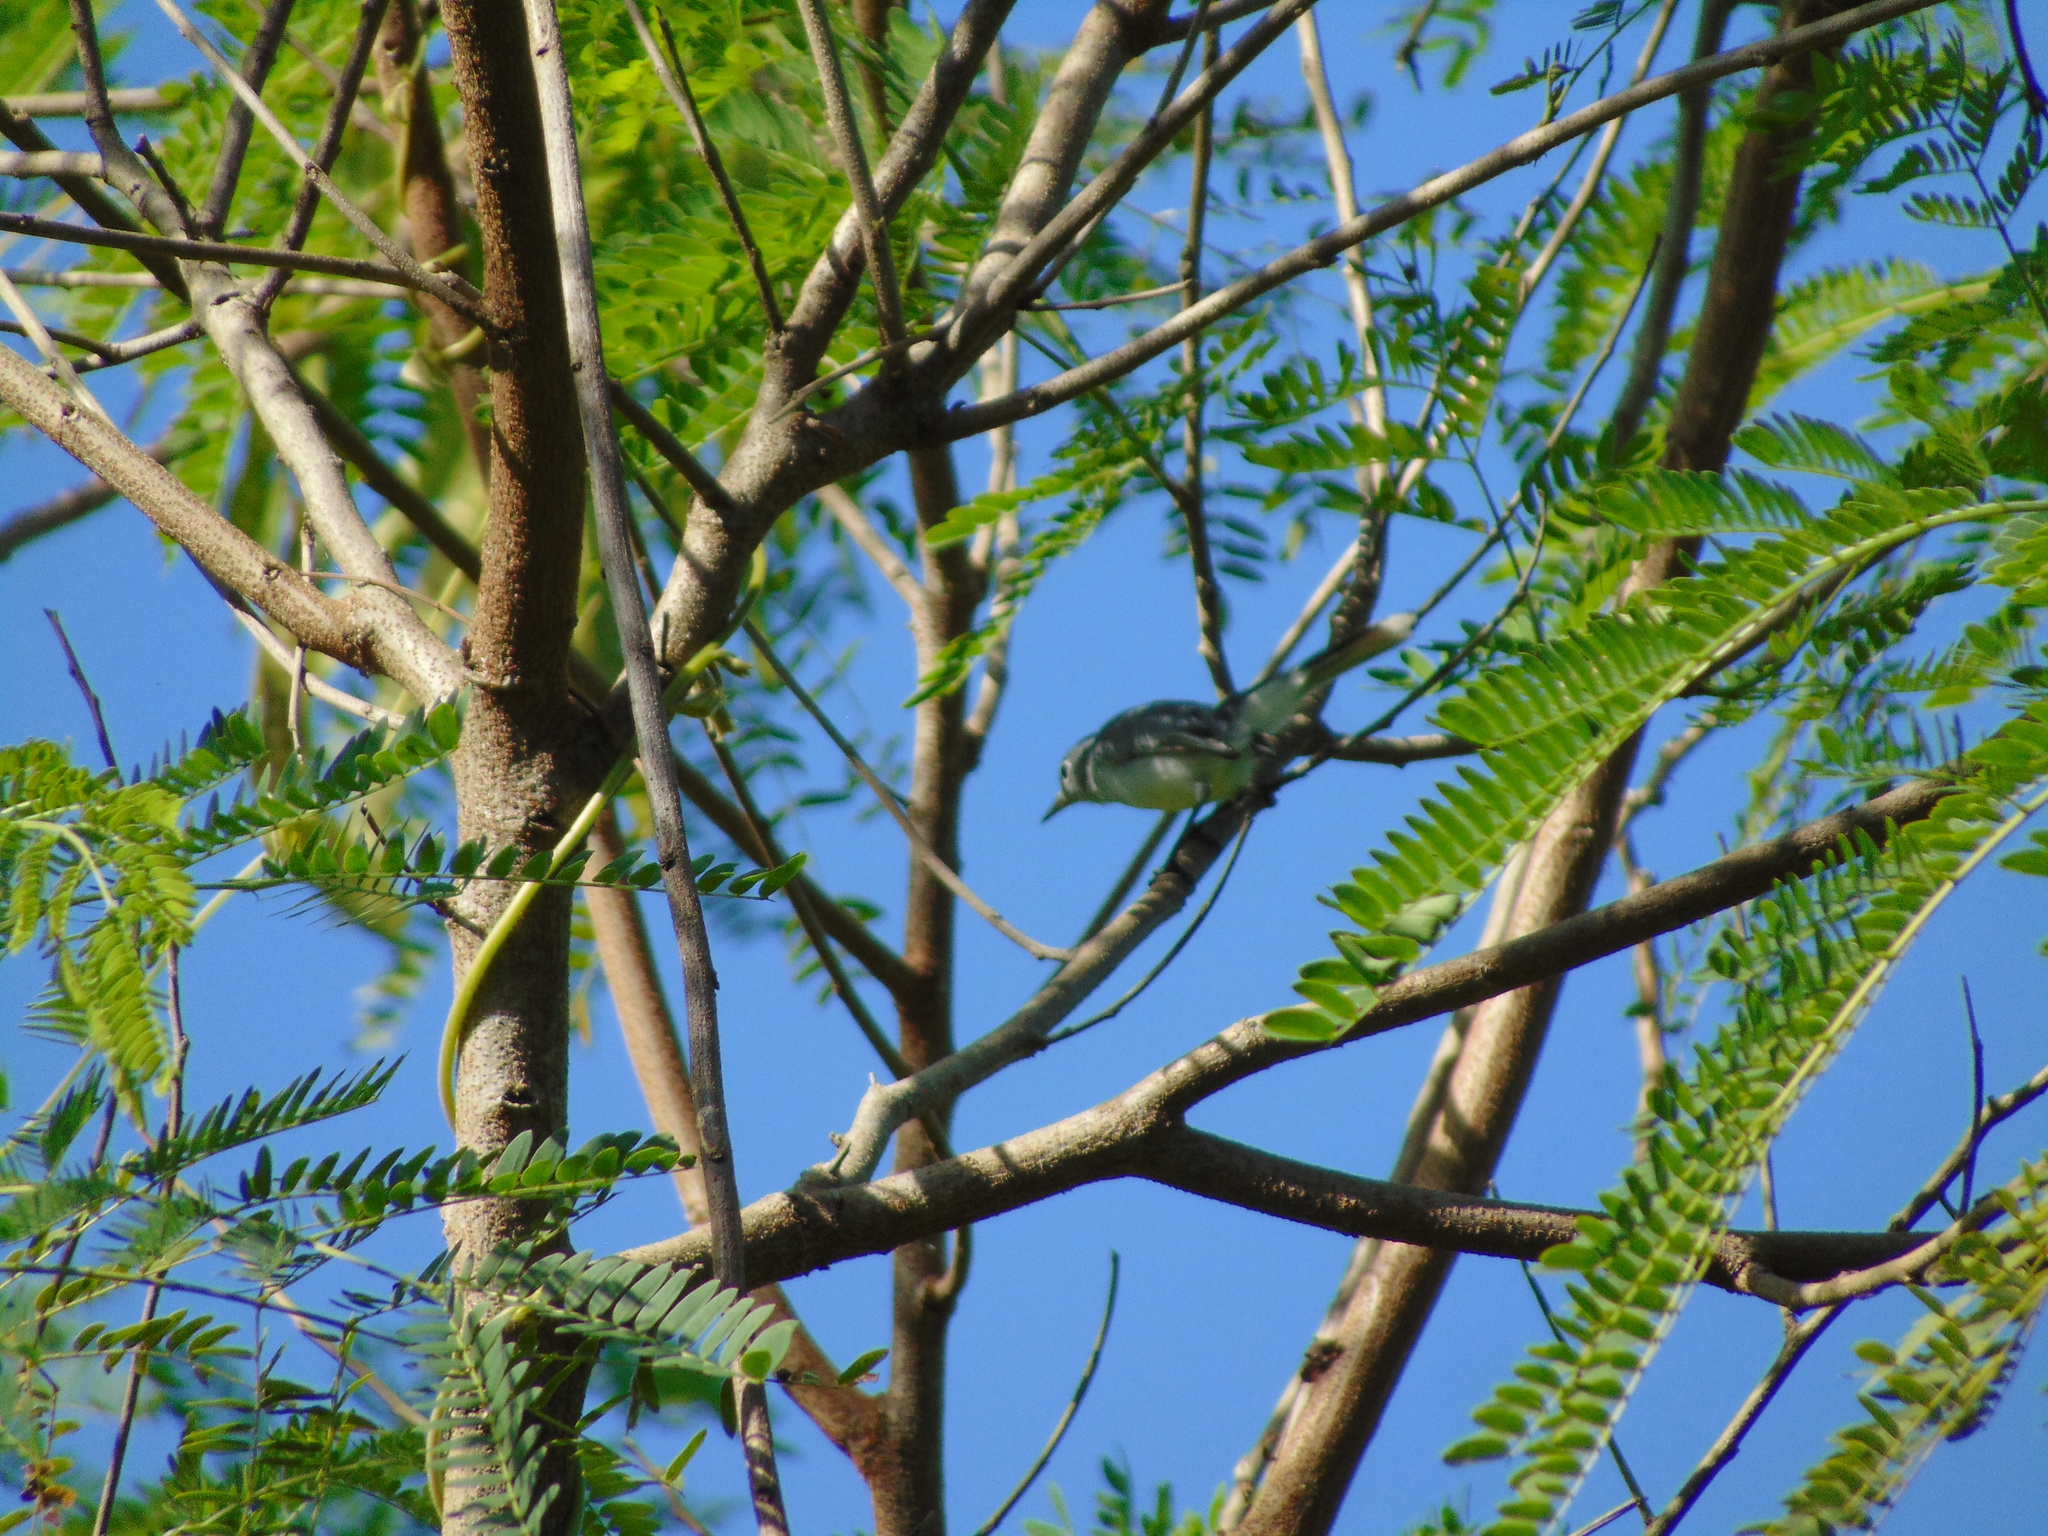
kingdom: Animalia
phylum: Chordata
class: Aves
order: Passeriformes
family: Polioptilidae
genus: Polioptila
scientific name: Polioptila caerulea
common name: Blue-gray gnatcatcher
